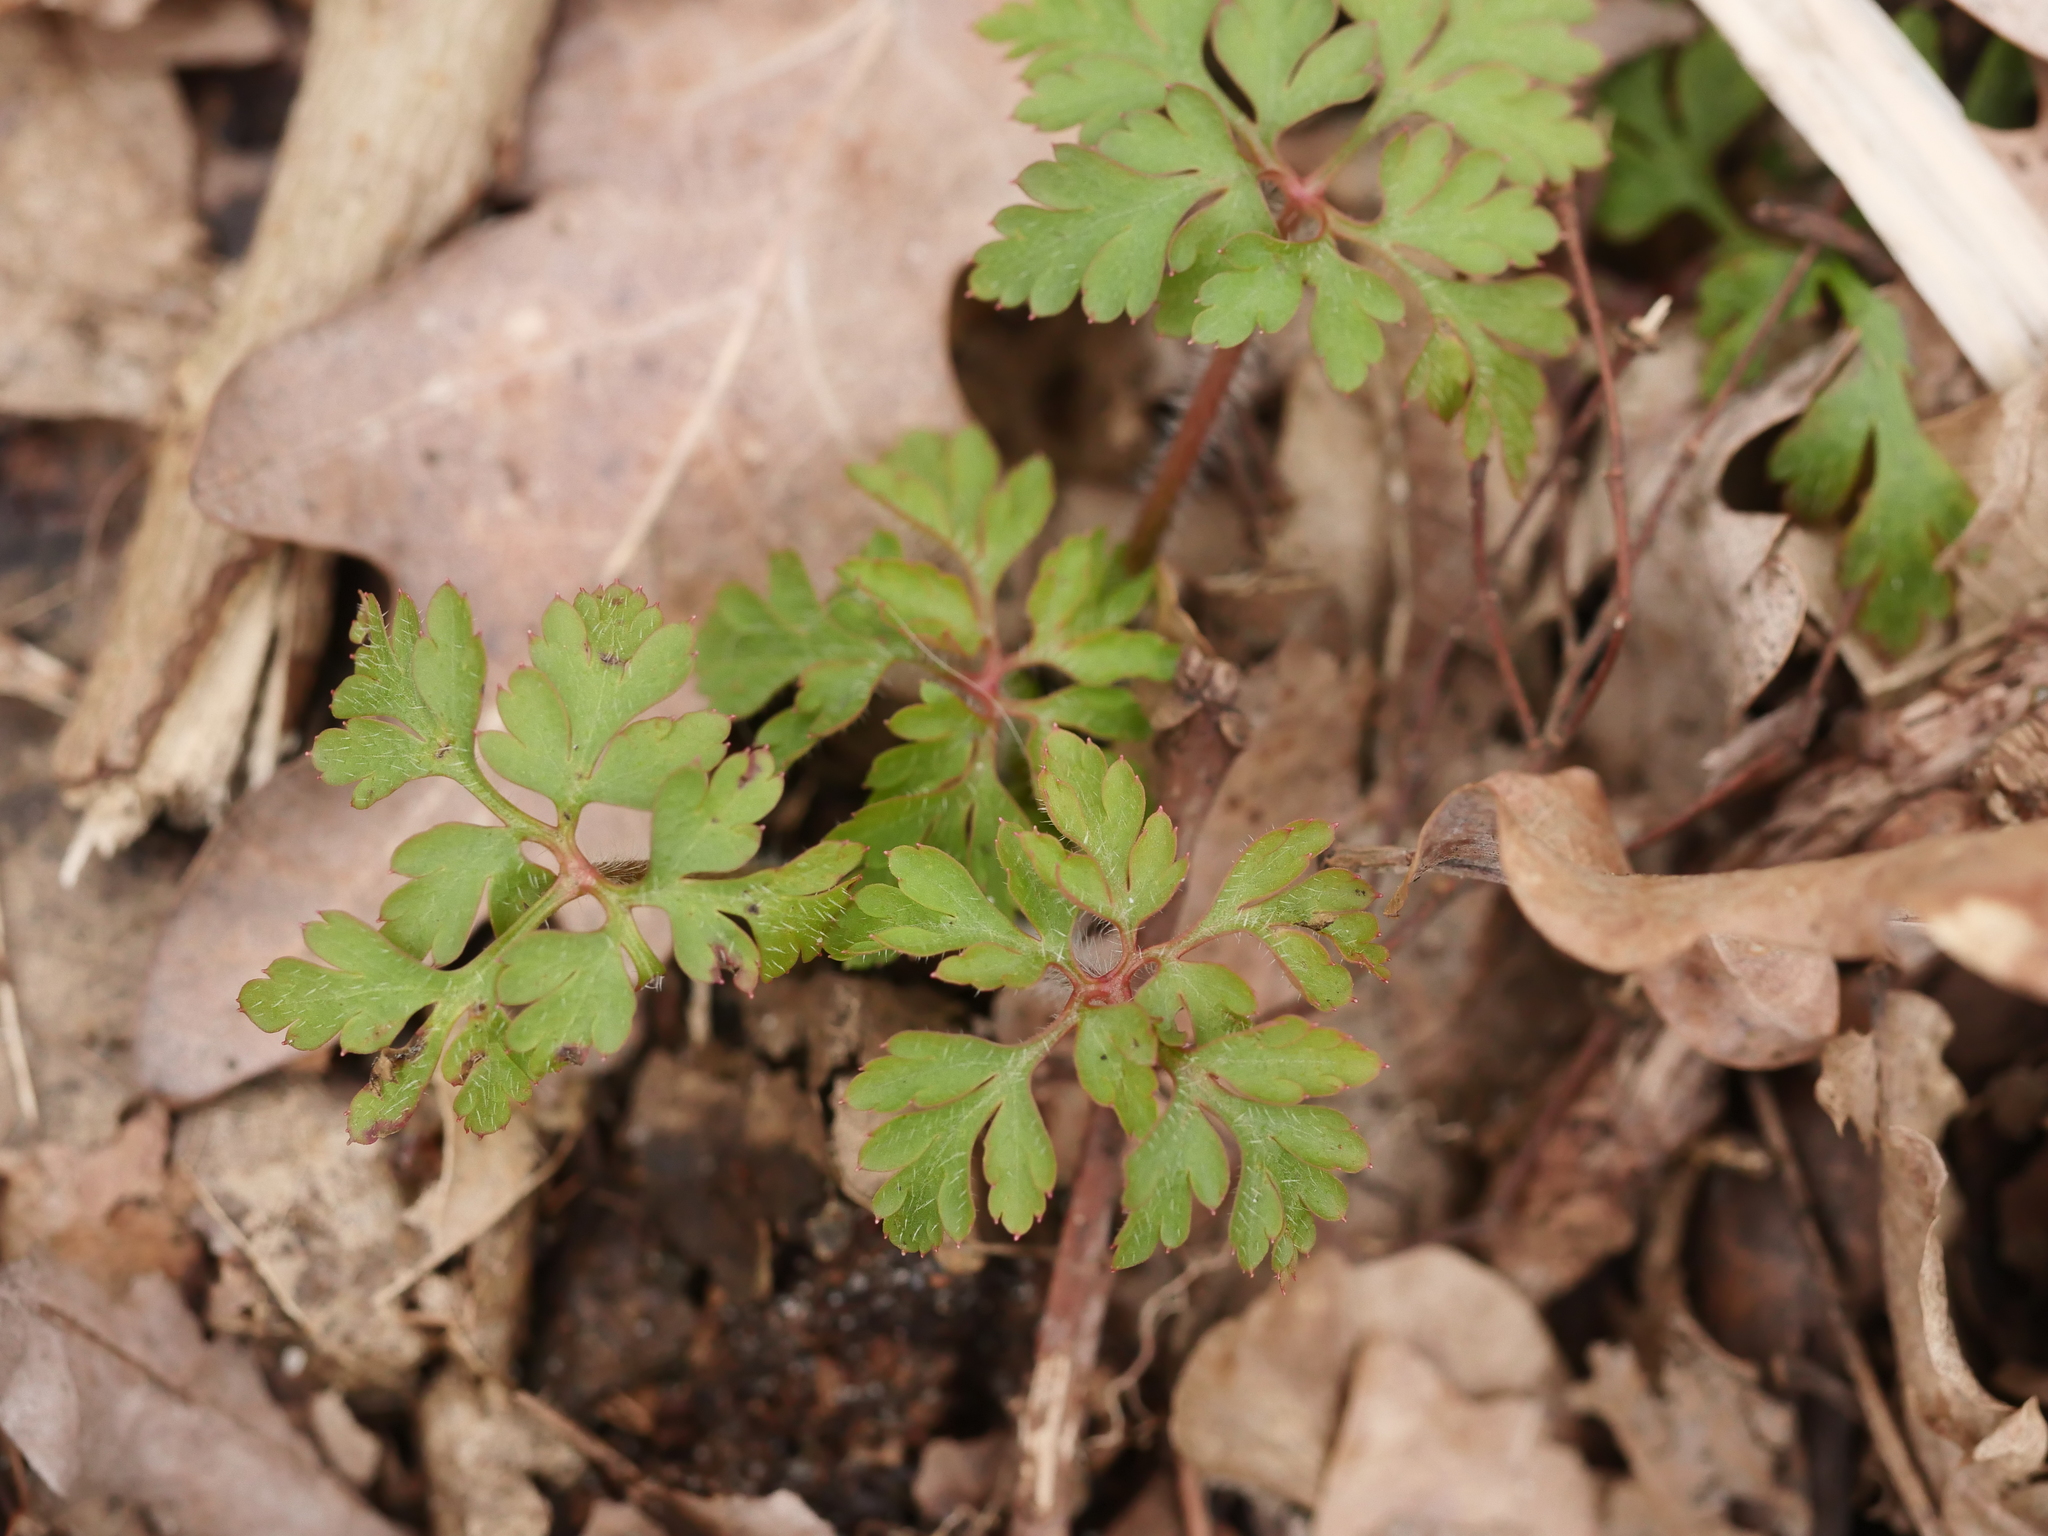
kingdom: Plantae
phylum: Tracheophyta
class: Magnoliopsida
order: Geraniales
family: Geraniaceae
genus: Geranium
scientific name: Geranium robertianum
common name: Herb-robert
